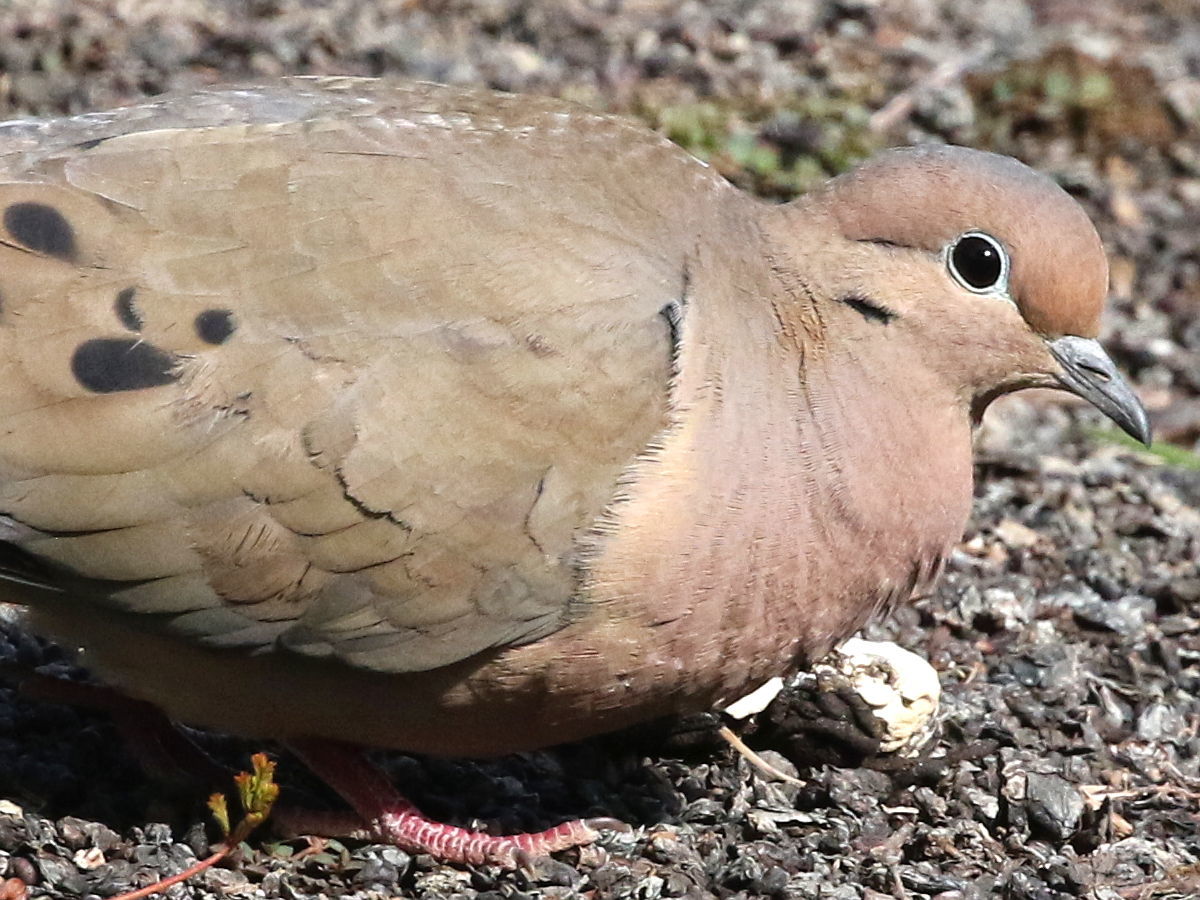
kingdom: Animalia
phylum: Chordata
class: Aves
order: Columbiformes
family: Columbidae
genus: Zenaida
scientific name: Zenaida auriculata
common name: Eared dove
